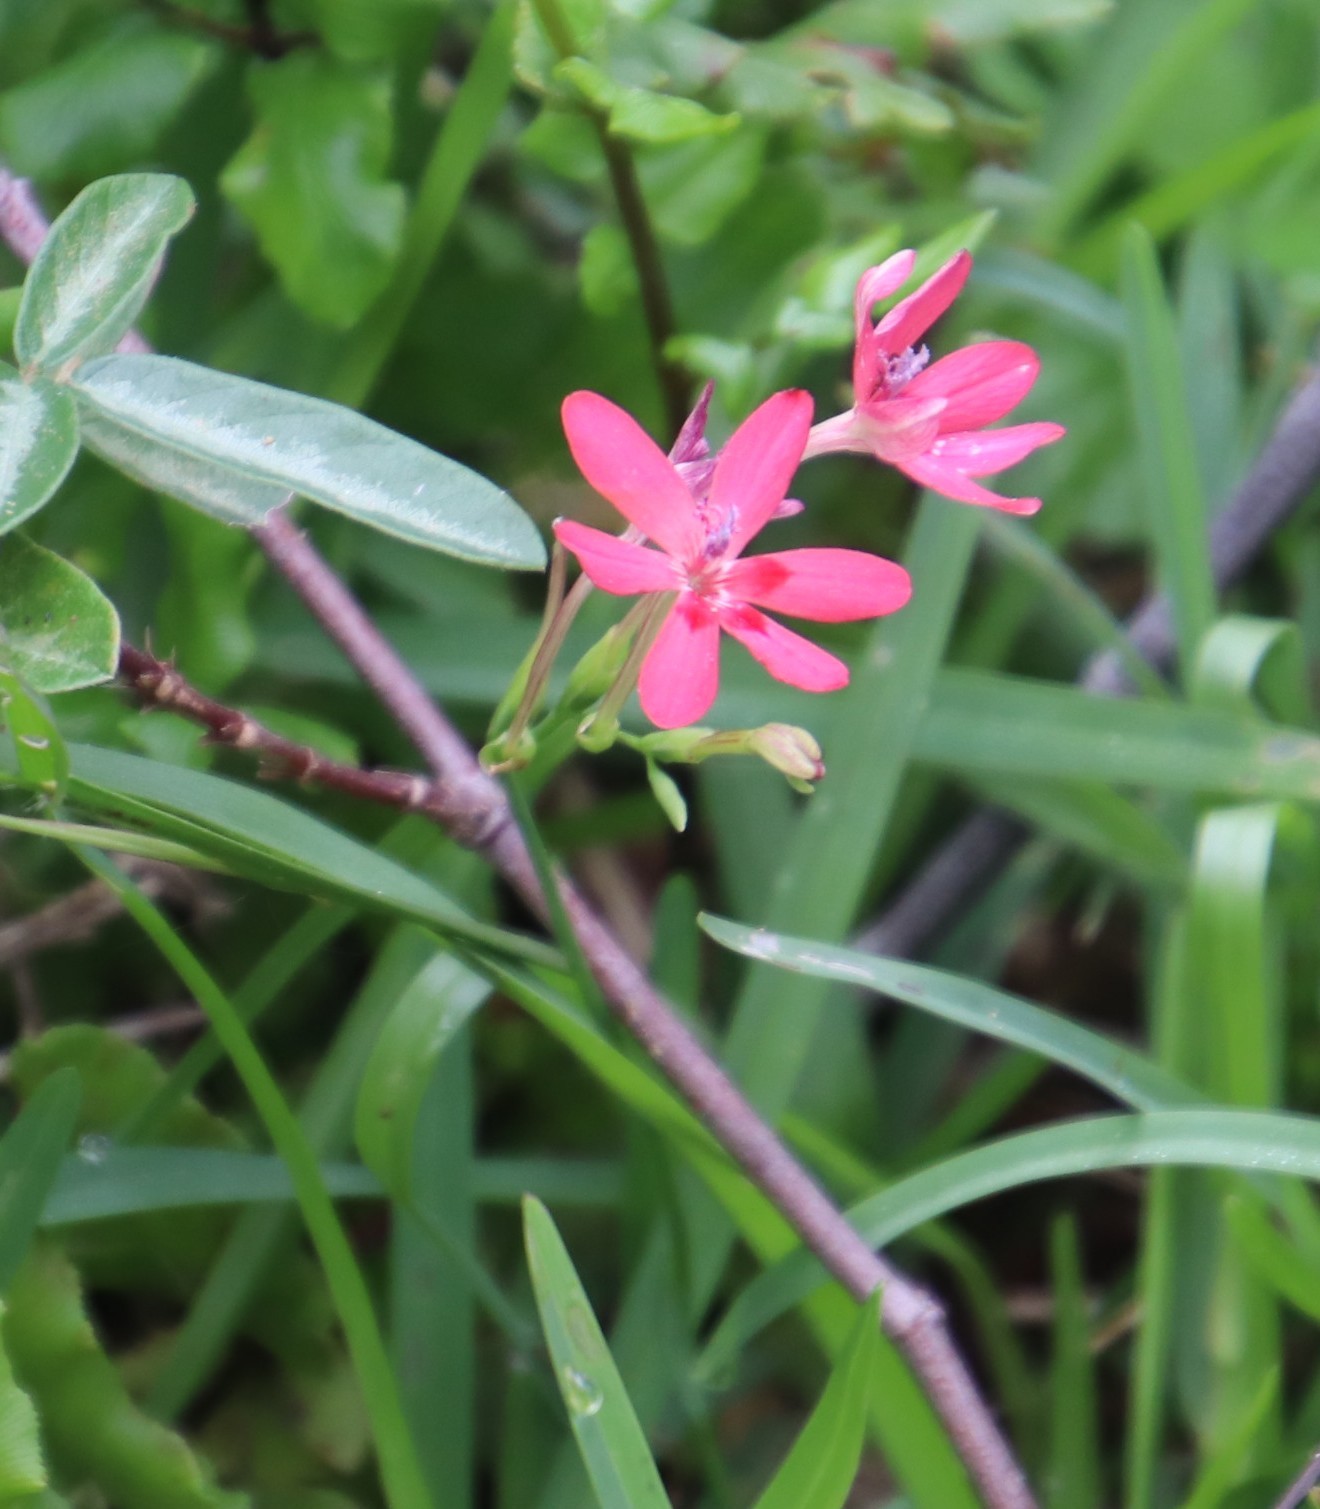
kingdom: Plantae
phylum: Tracheophyta
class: Liliopsida
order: Asparagales
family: Iridaceae
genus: Freesia
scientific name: Freesia laxa
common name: False freesia
